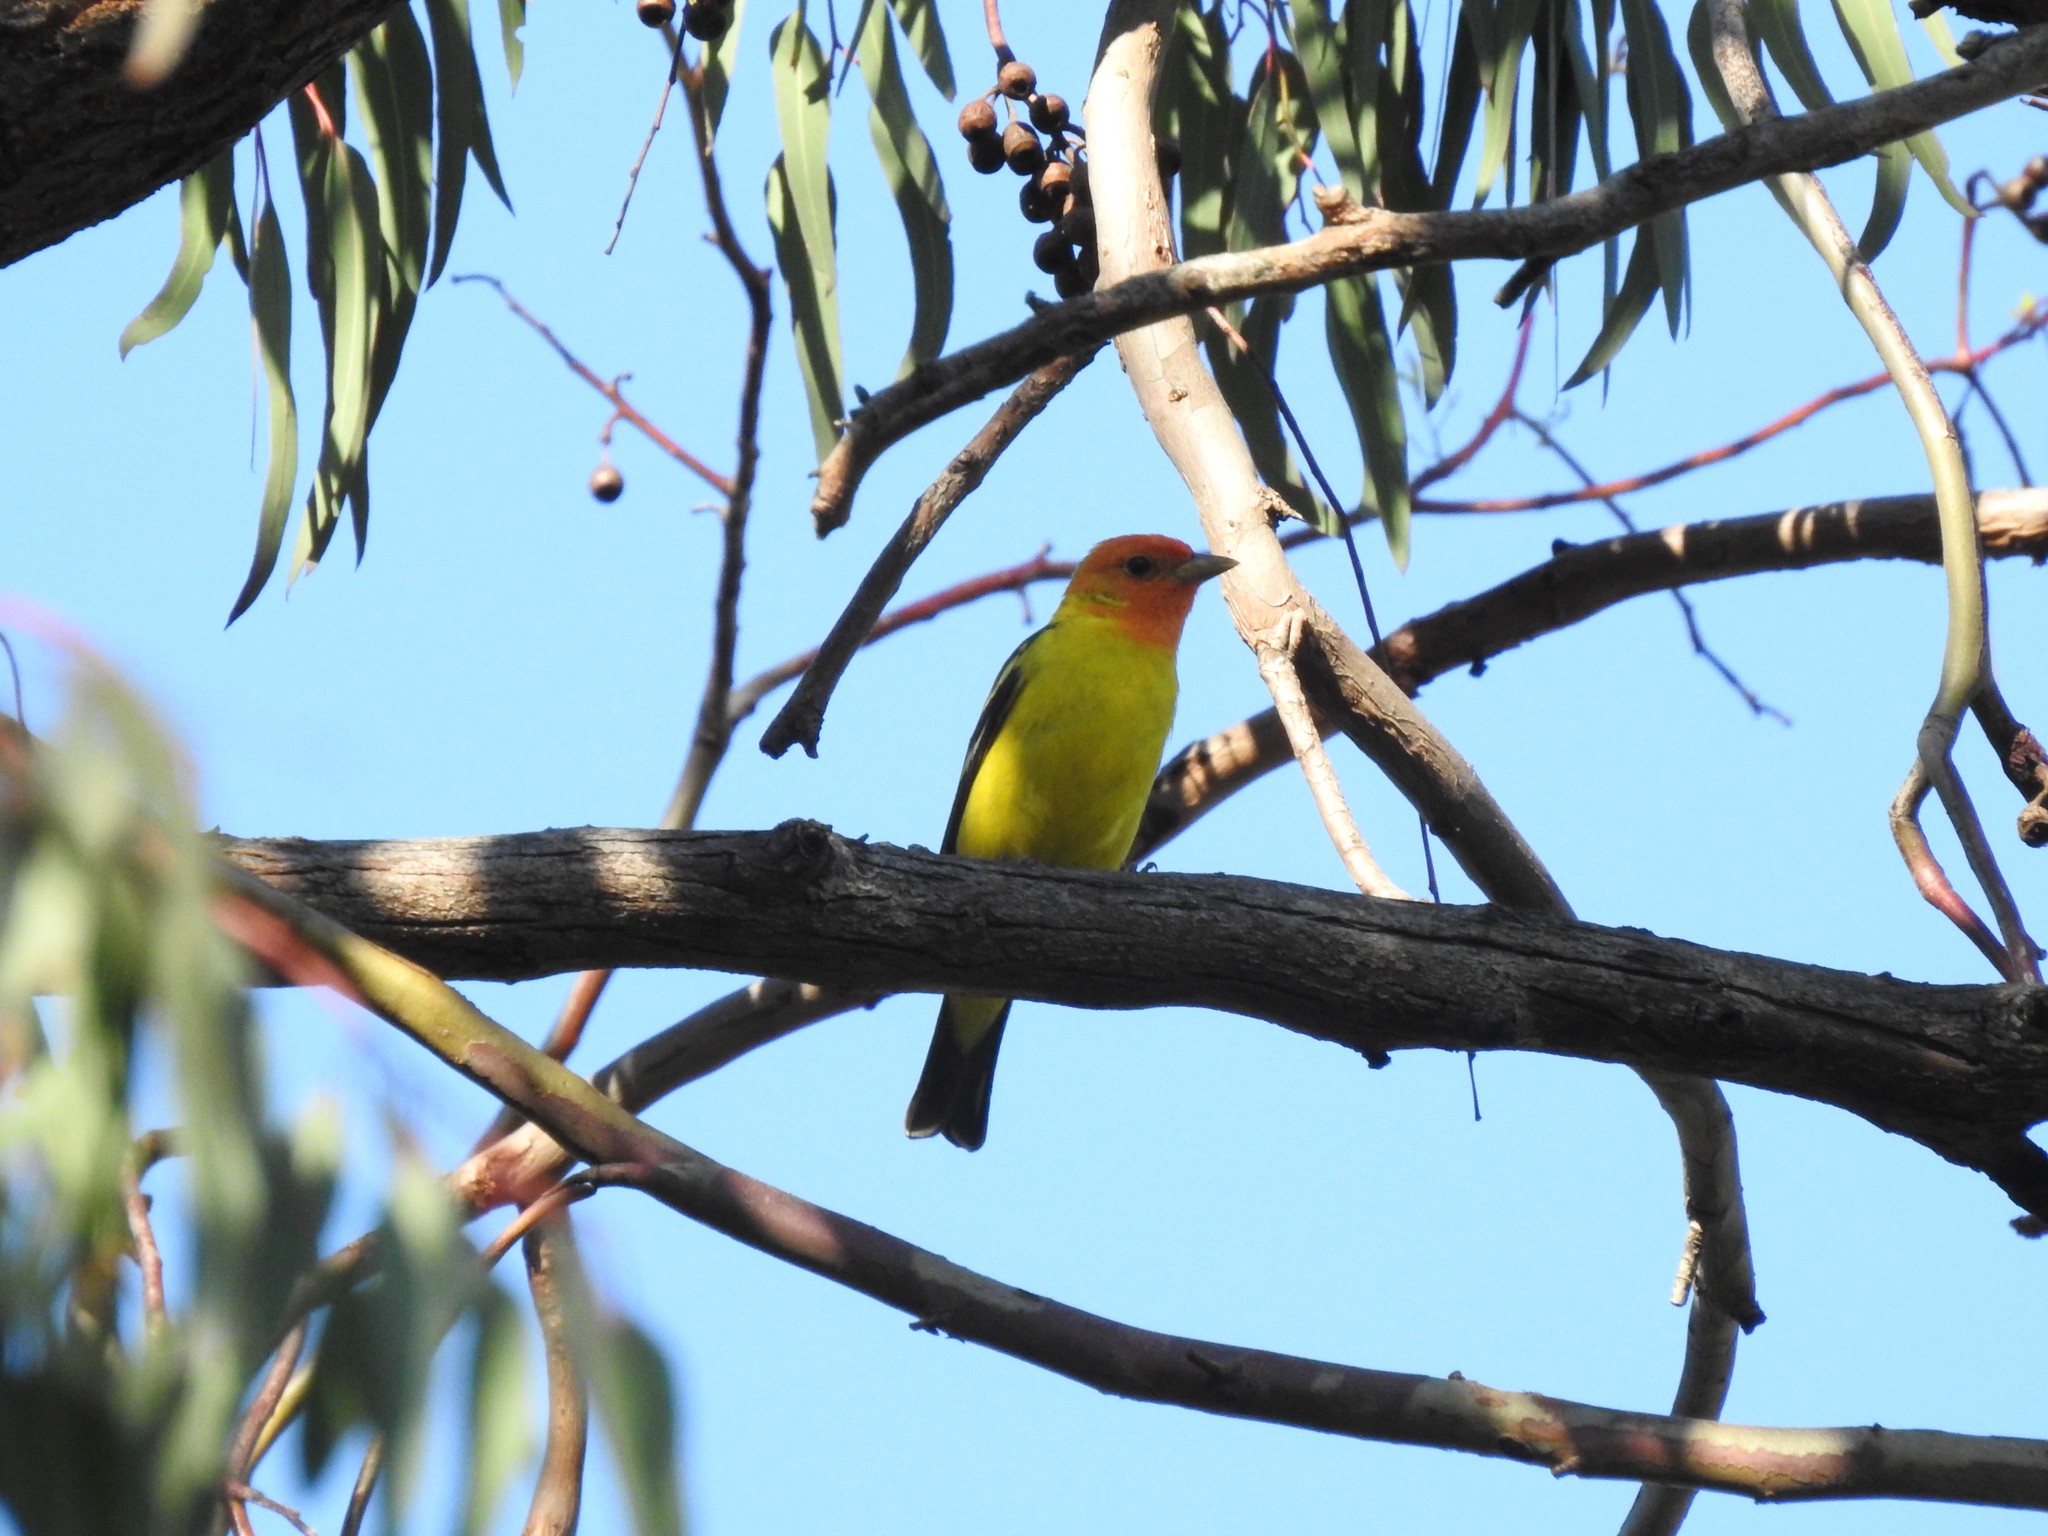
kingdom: Animalia
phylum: Chordata
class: Aves
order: Passeriformes
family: Cardinalidae
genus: Piranga
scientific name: Piranga ludoviciana
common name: Western tanager
